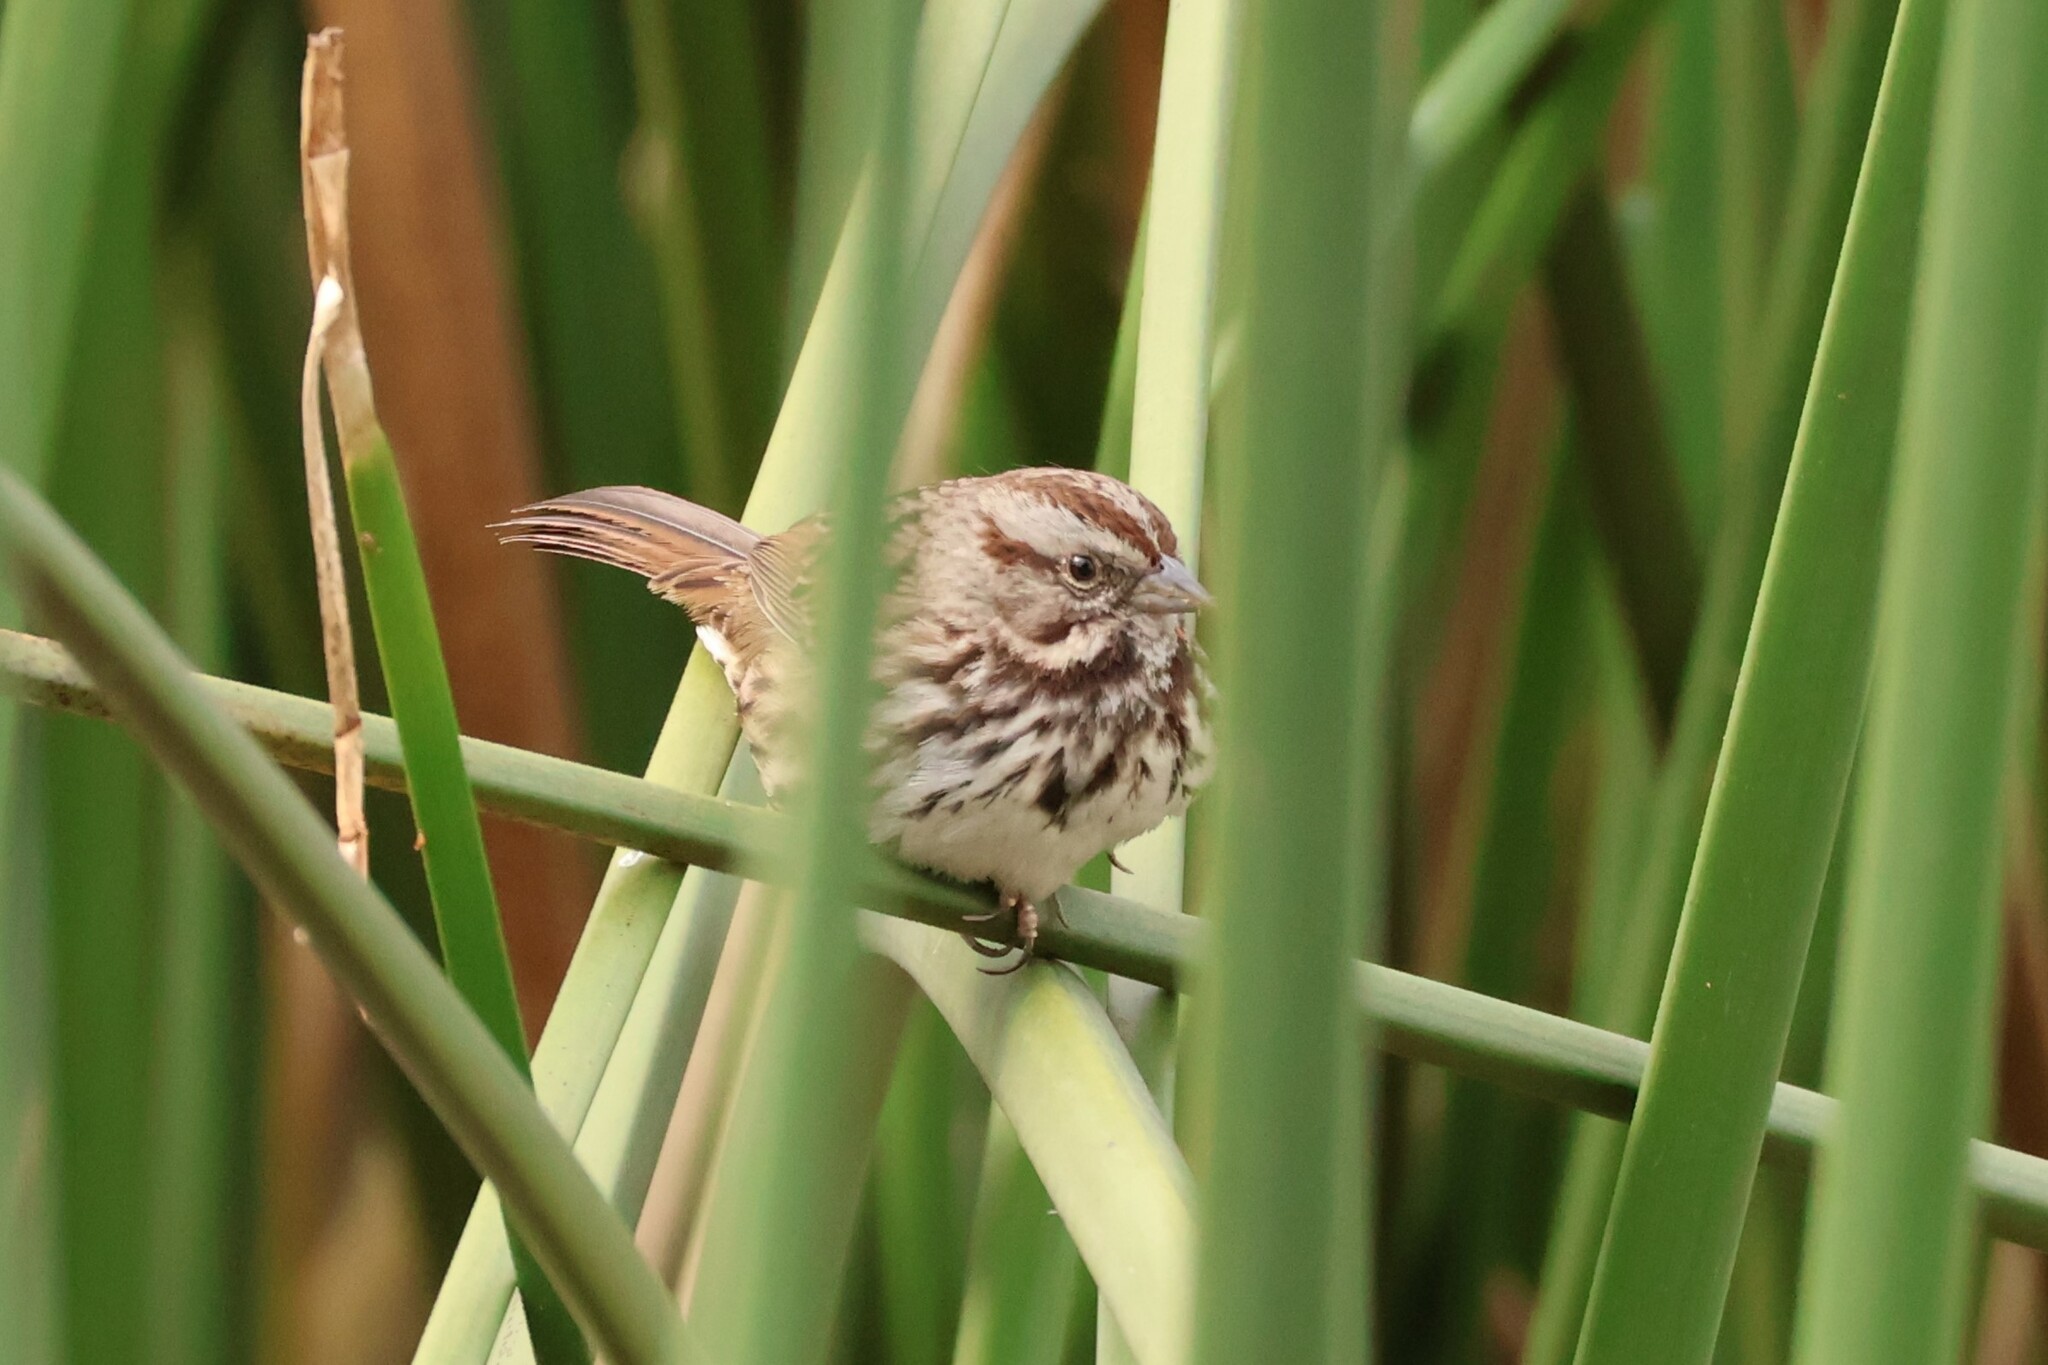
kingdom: Animalia
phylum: Chordata
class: Aves
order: Passeriformes
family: Passerellidae
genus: Melospiza
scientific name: Melospiza melodia
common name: Song sparrow
